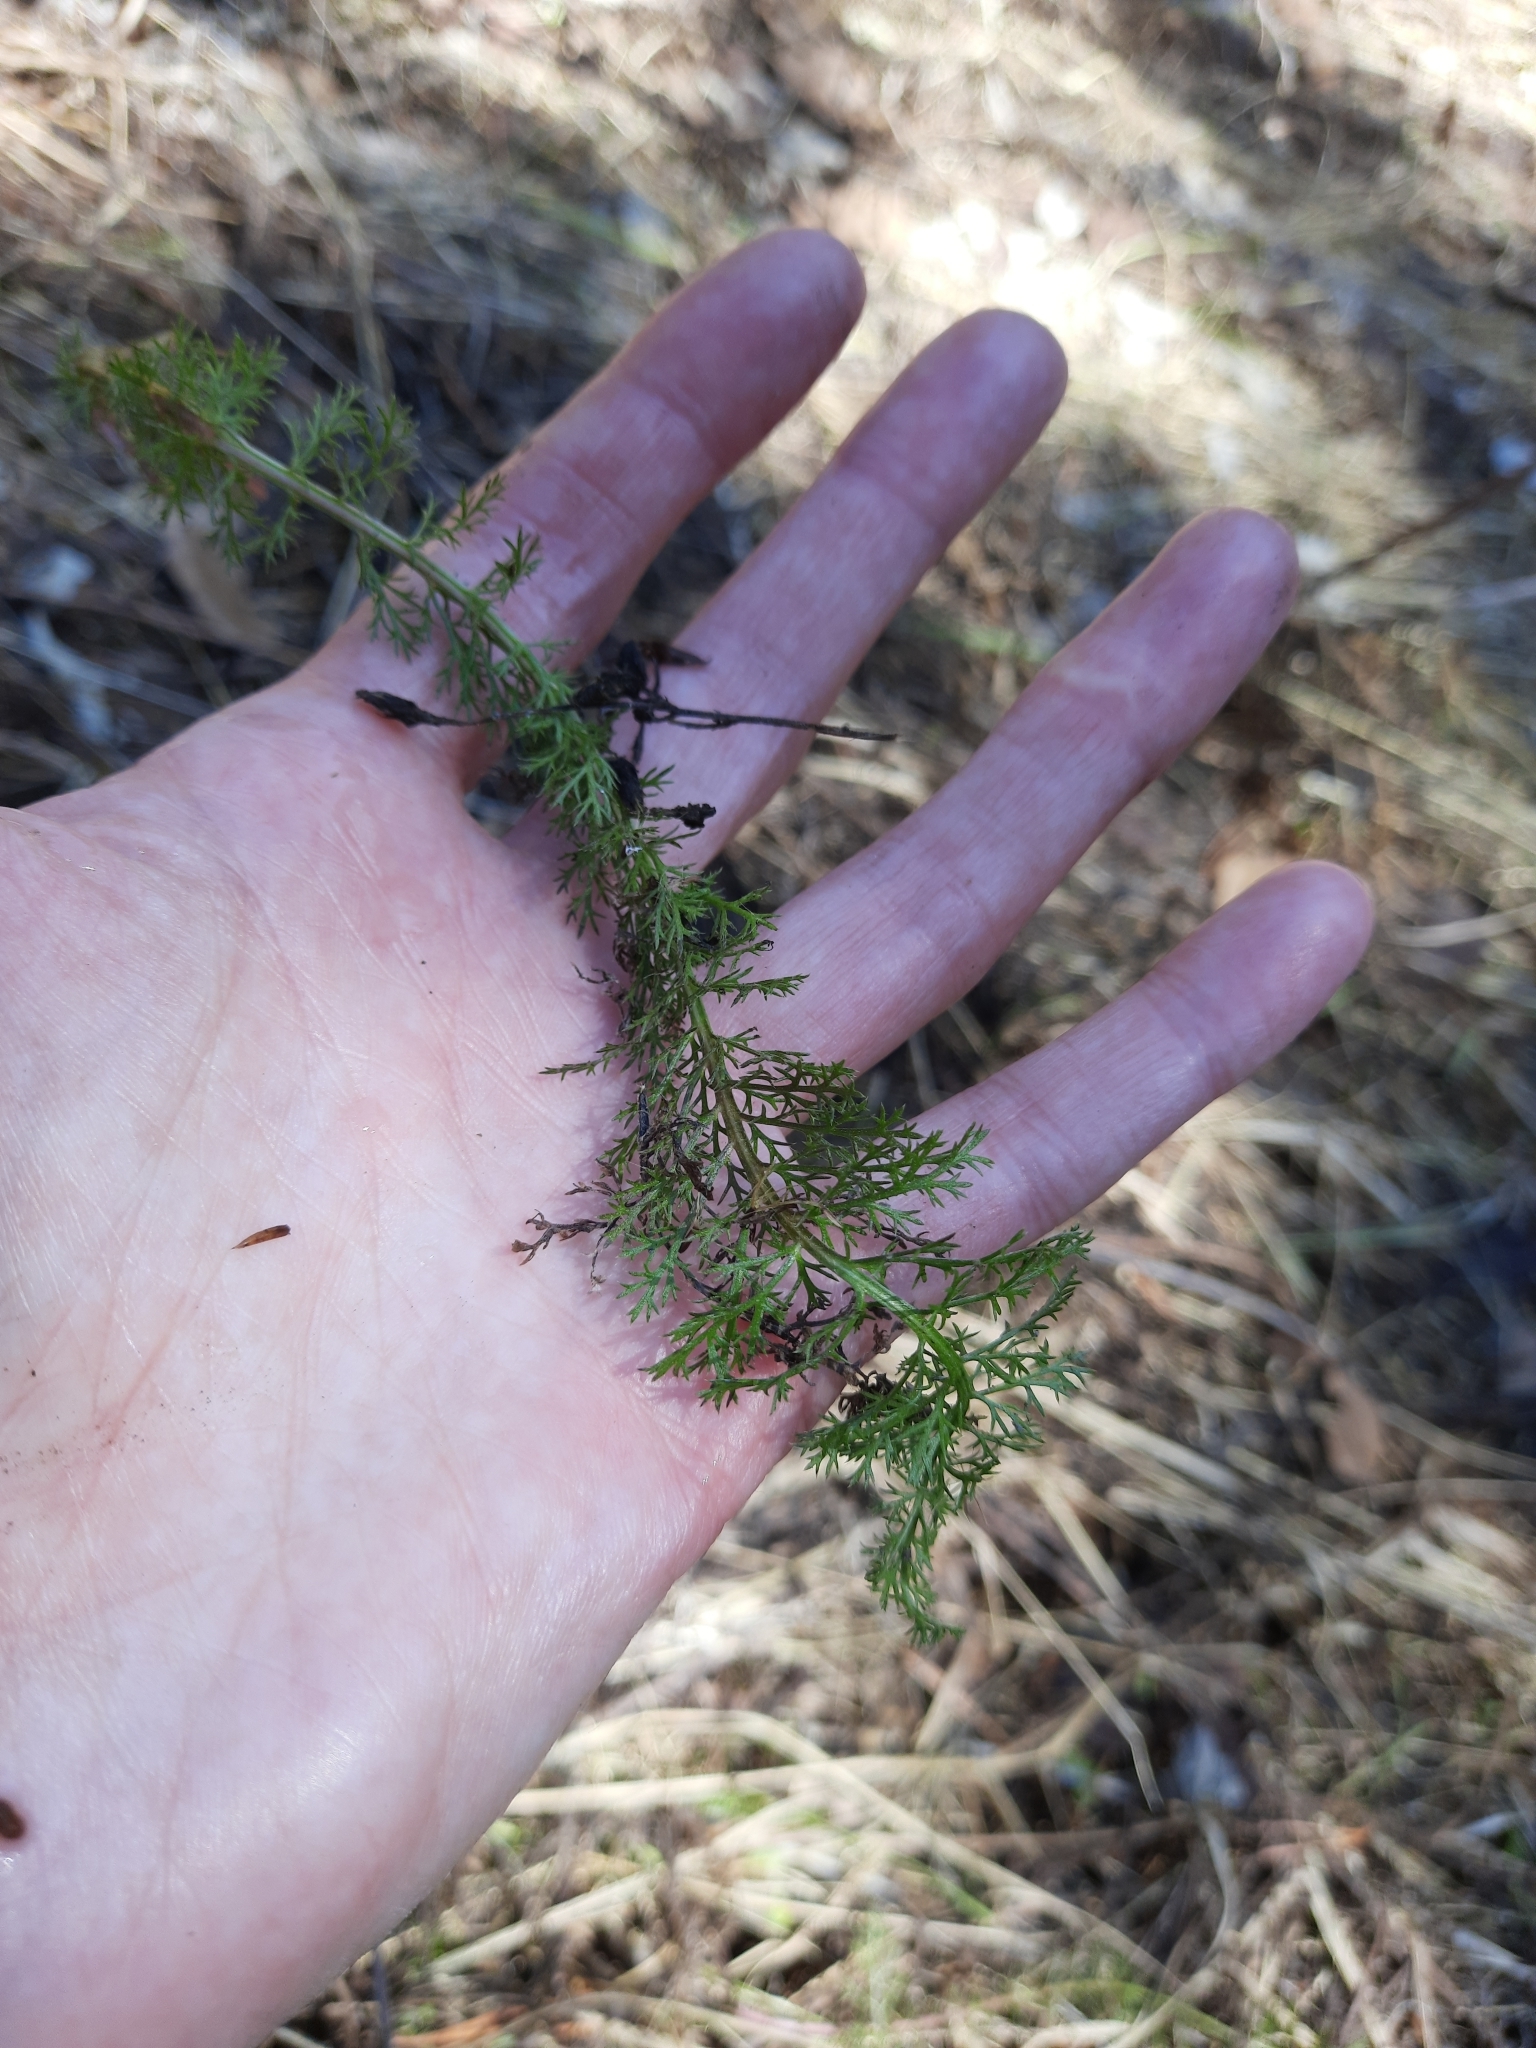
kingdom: Plantae
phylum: Tracheophyta
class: Magnoliopsida
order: Asterales
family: Asteraceae
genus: Achillea
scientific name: Achillea millefolium
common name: Yarrow
